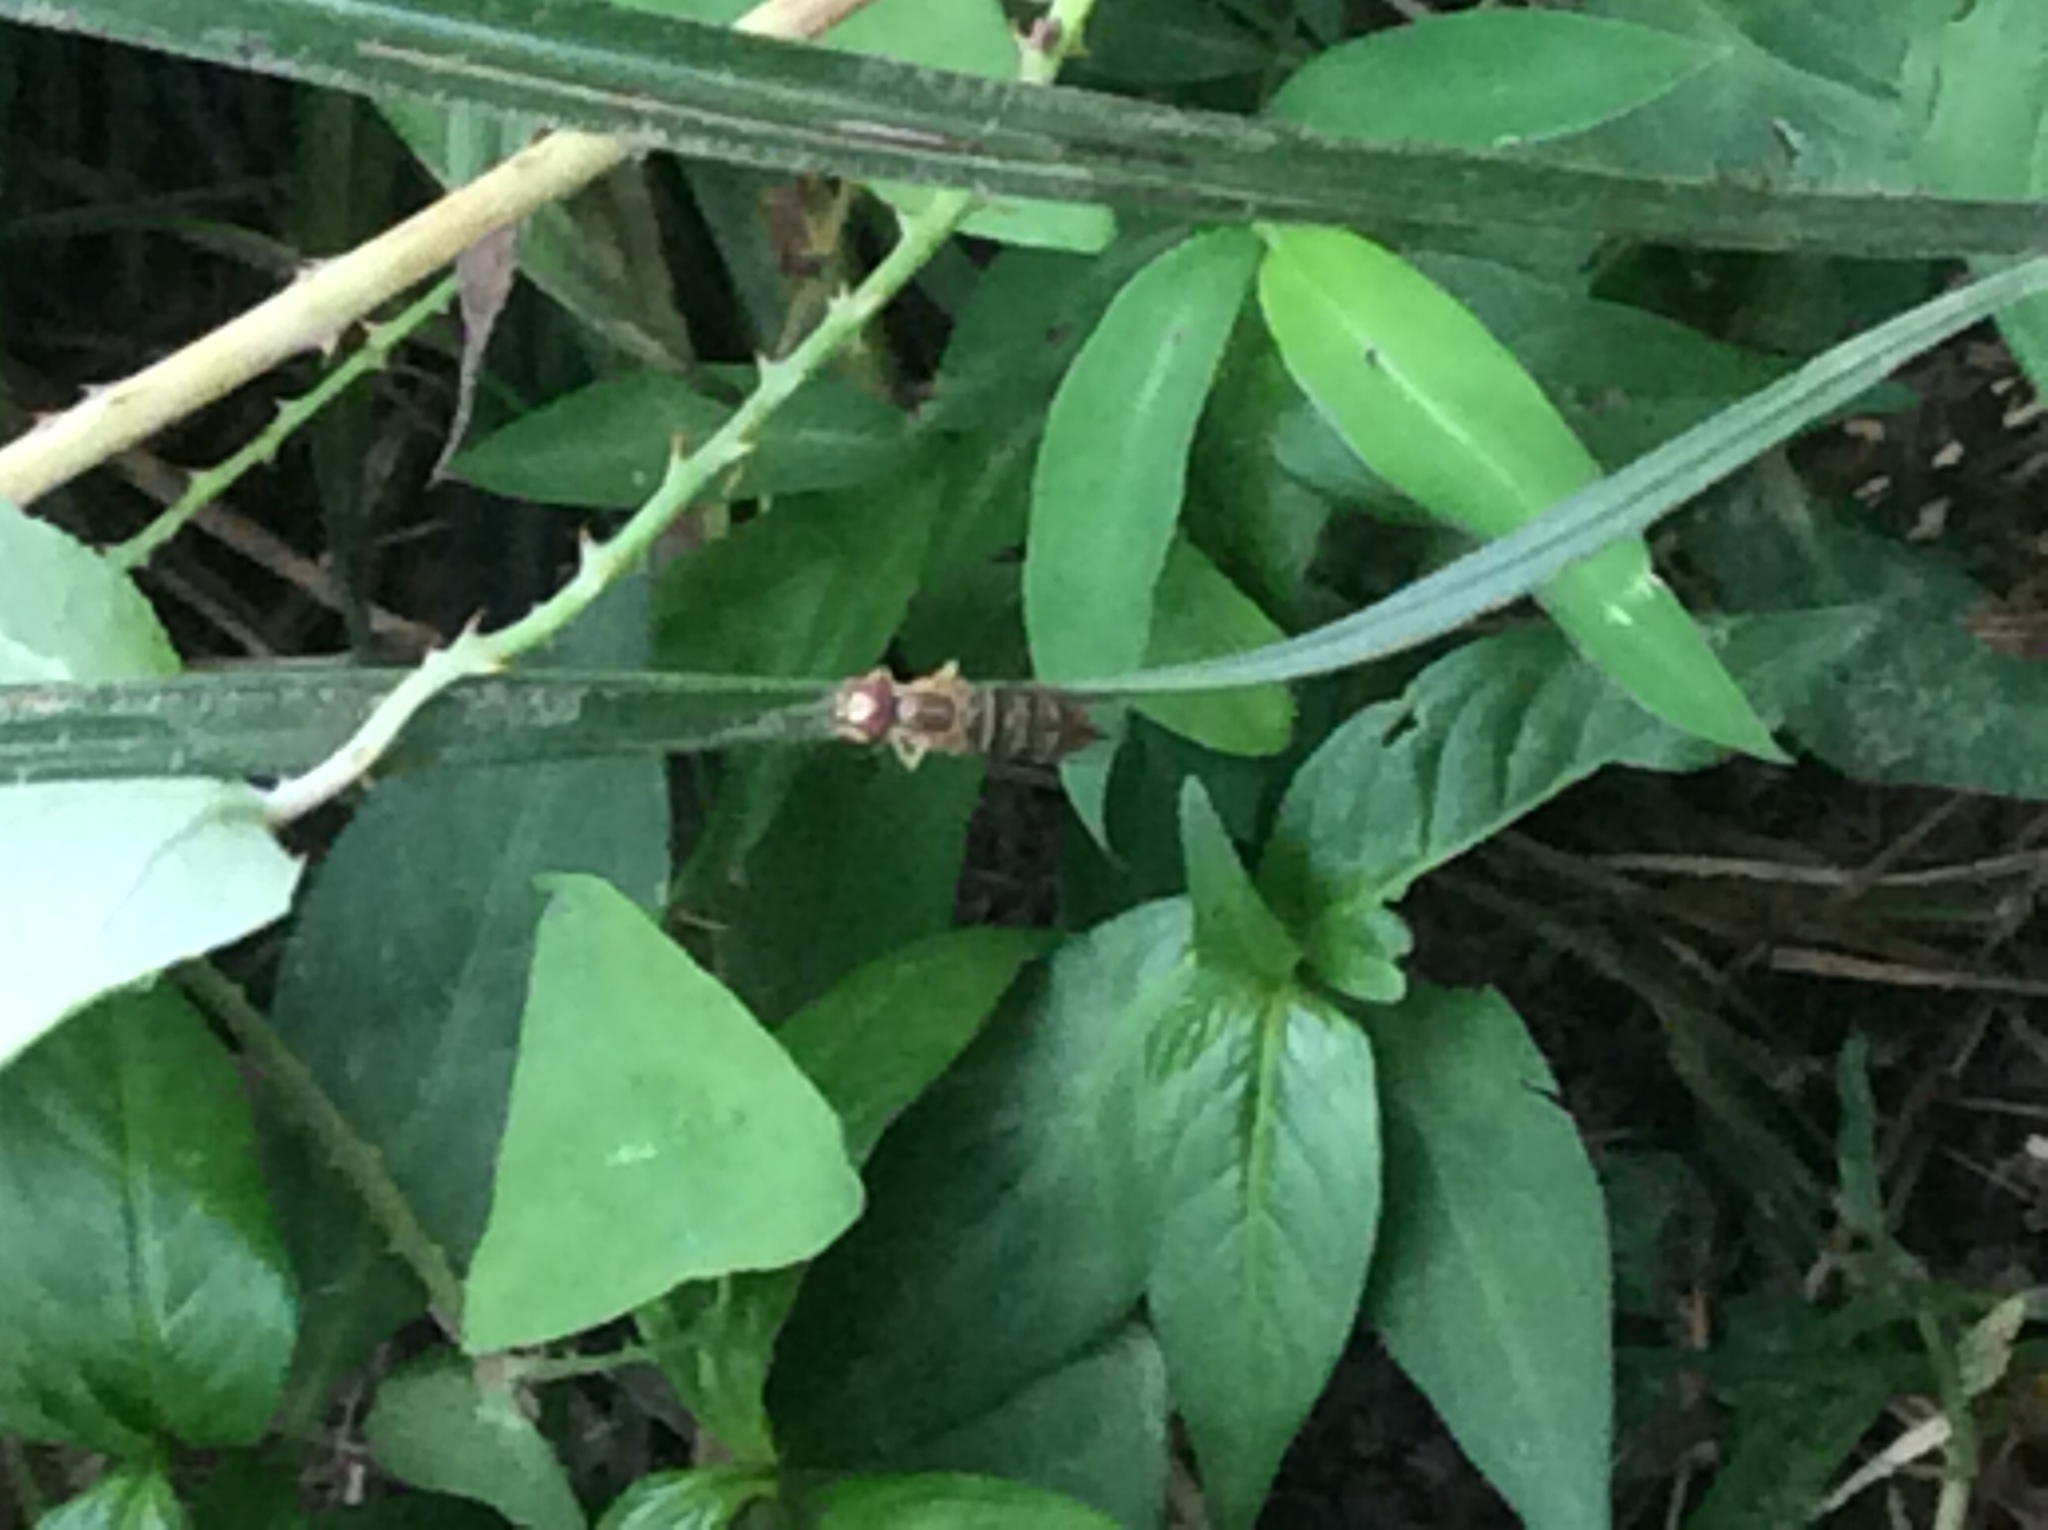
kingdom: Animalia
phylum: Arthropoda
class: Insecta
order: Diptera
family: Syrphidae
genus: Toxomerus
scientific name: Toxomerus politus
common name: Maize calligrapher
